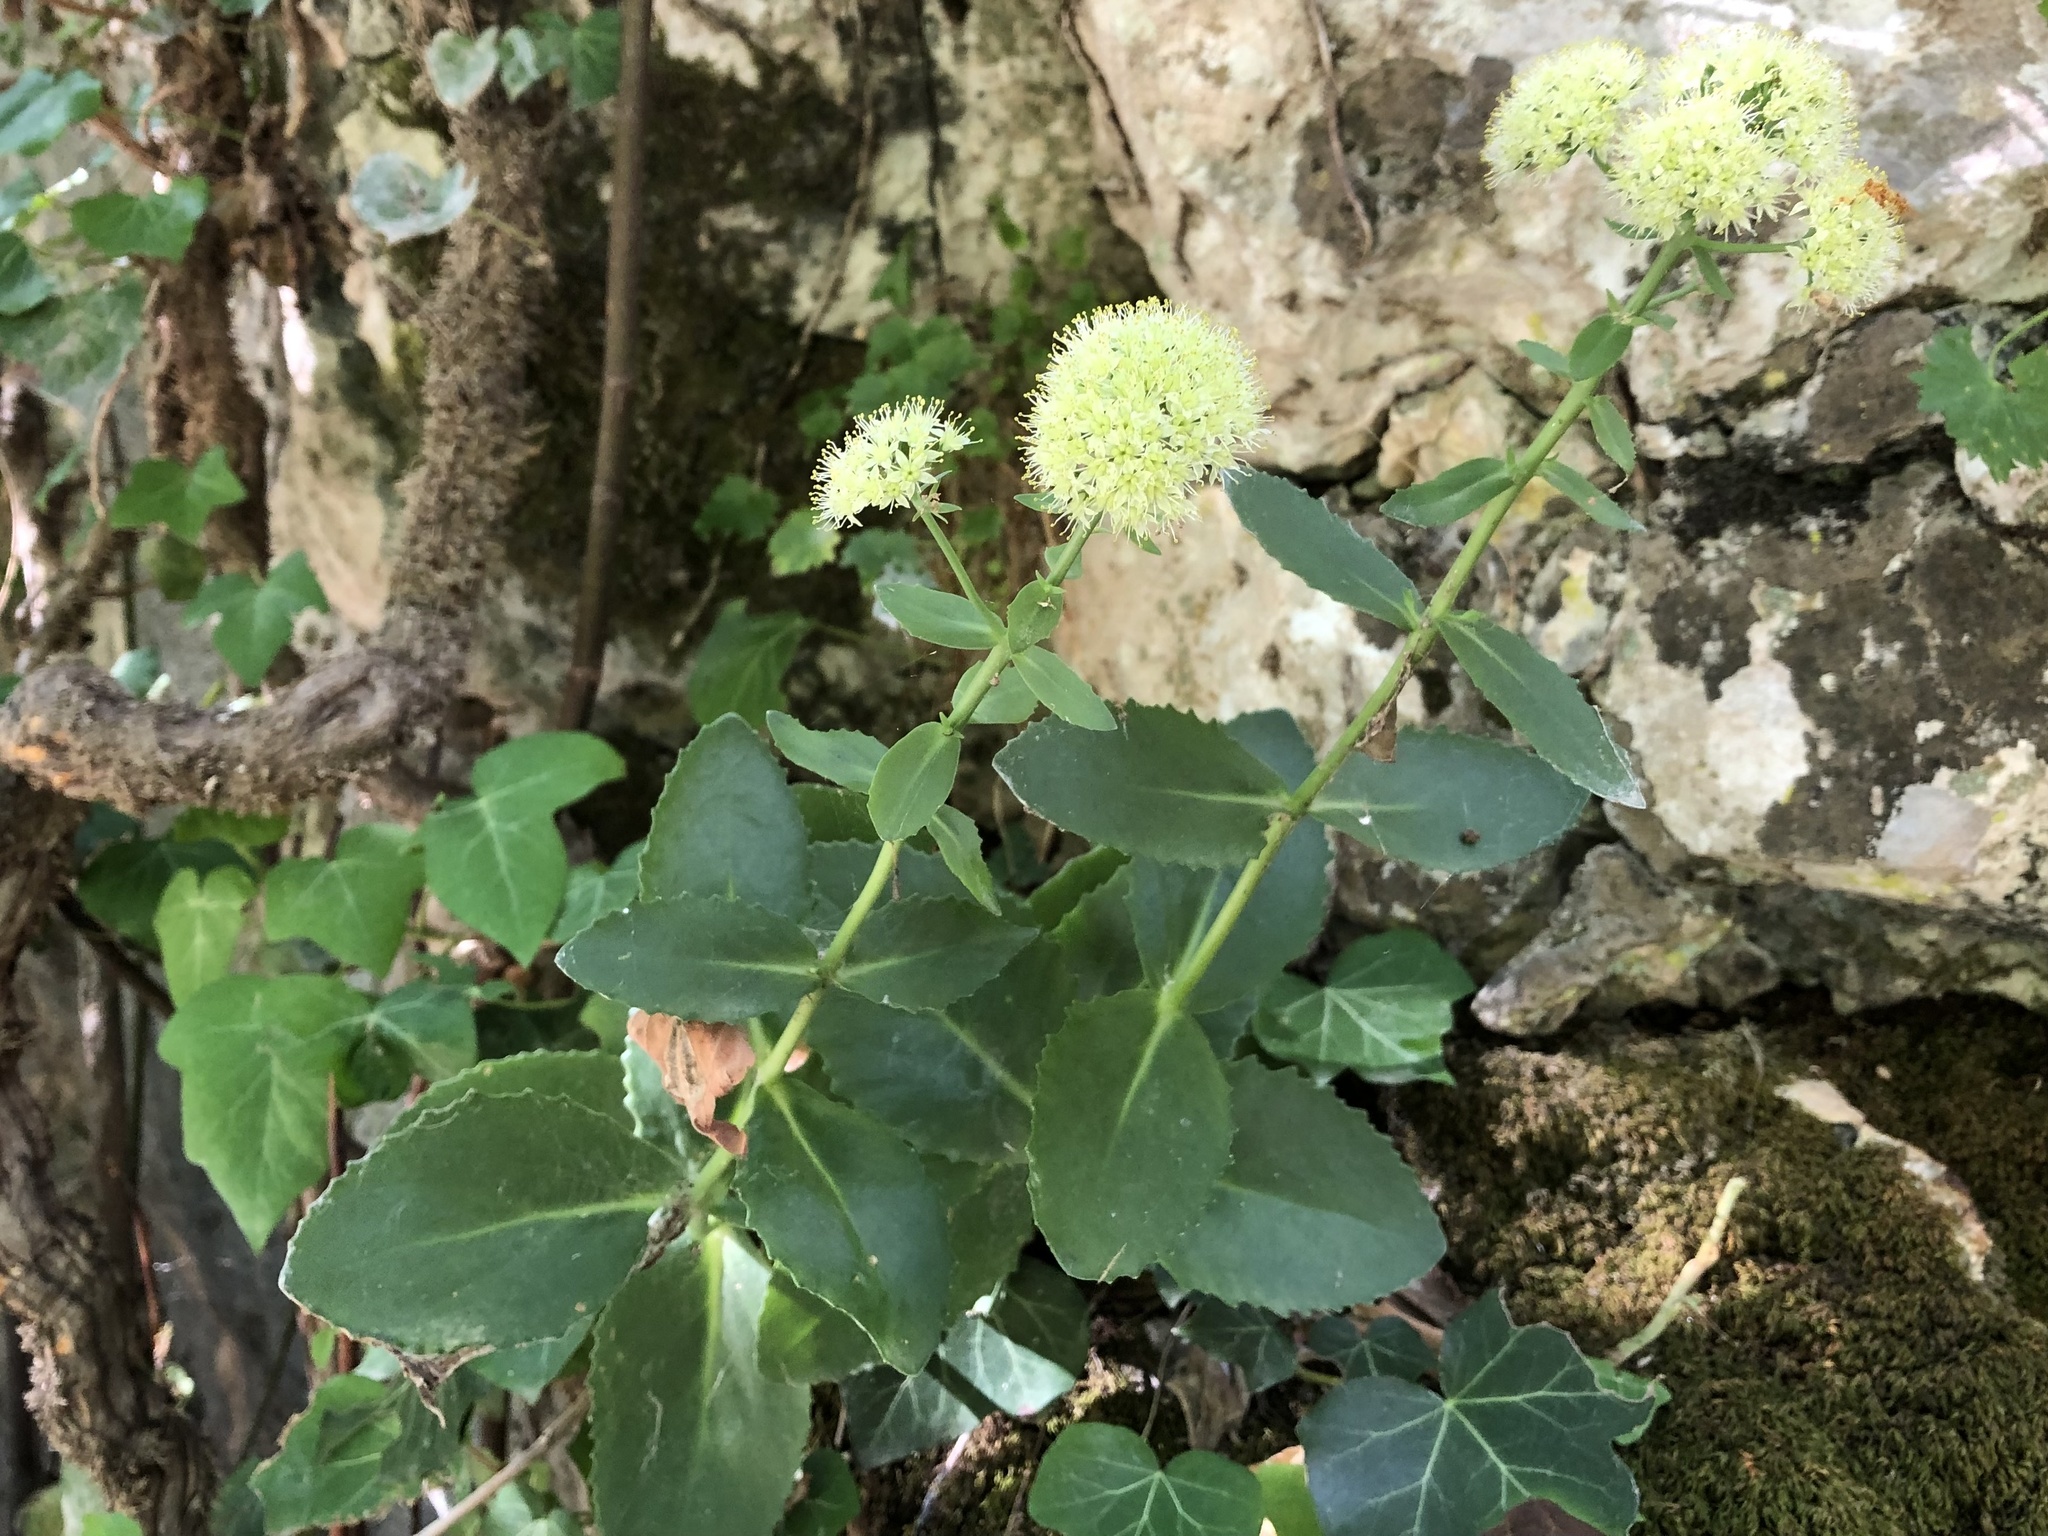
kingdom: Plantae
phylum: Tracheophyta
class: Magnoliopsida
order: Saxifragales
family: Crassulaceae
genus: Hylotelephium
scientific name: Hylotelephium maximum
